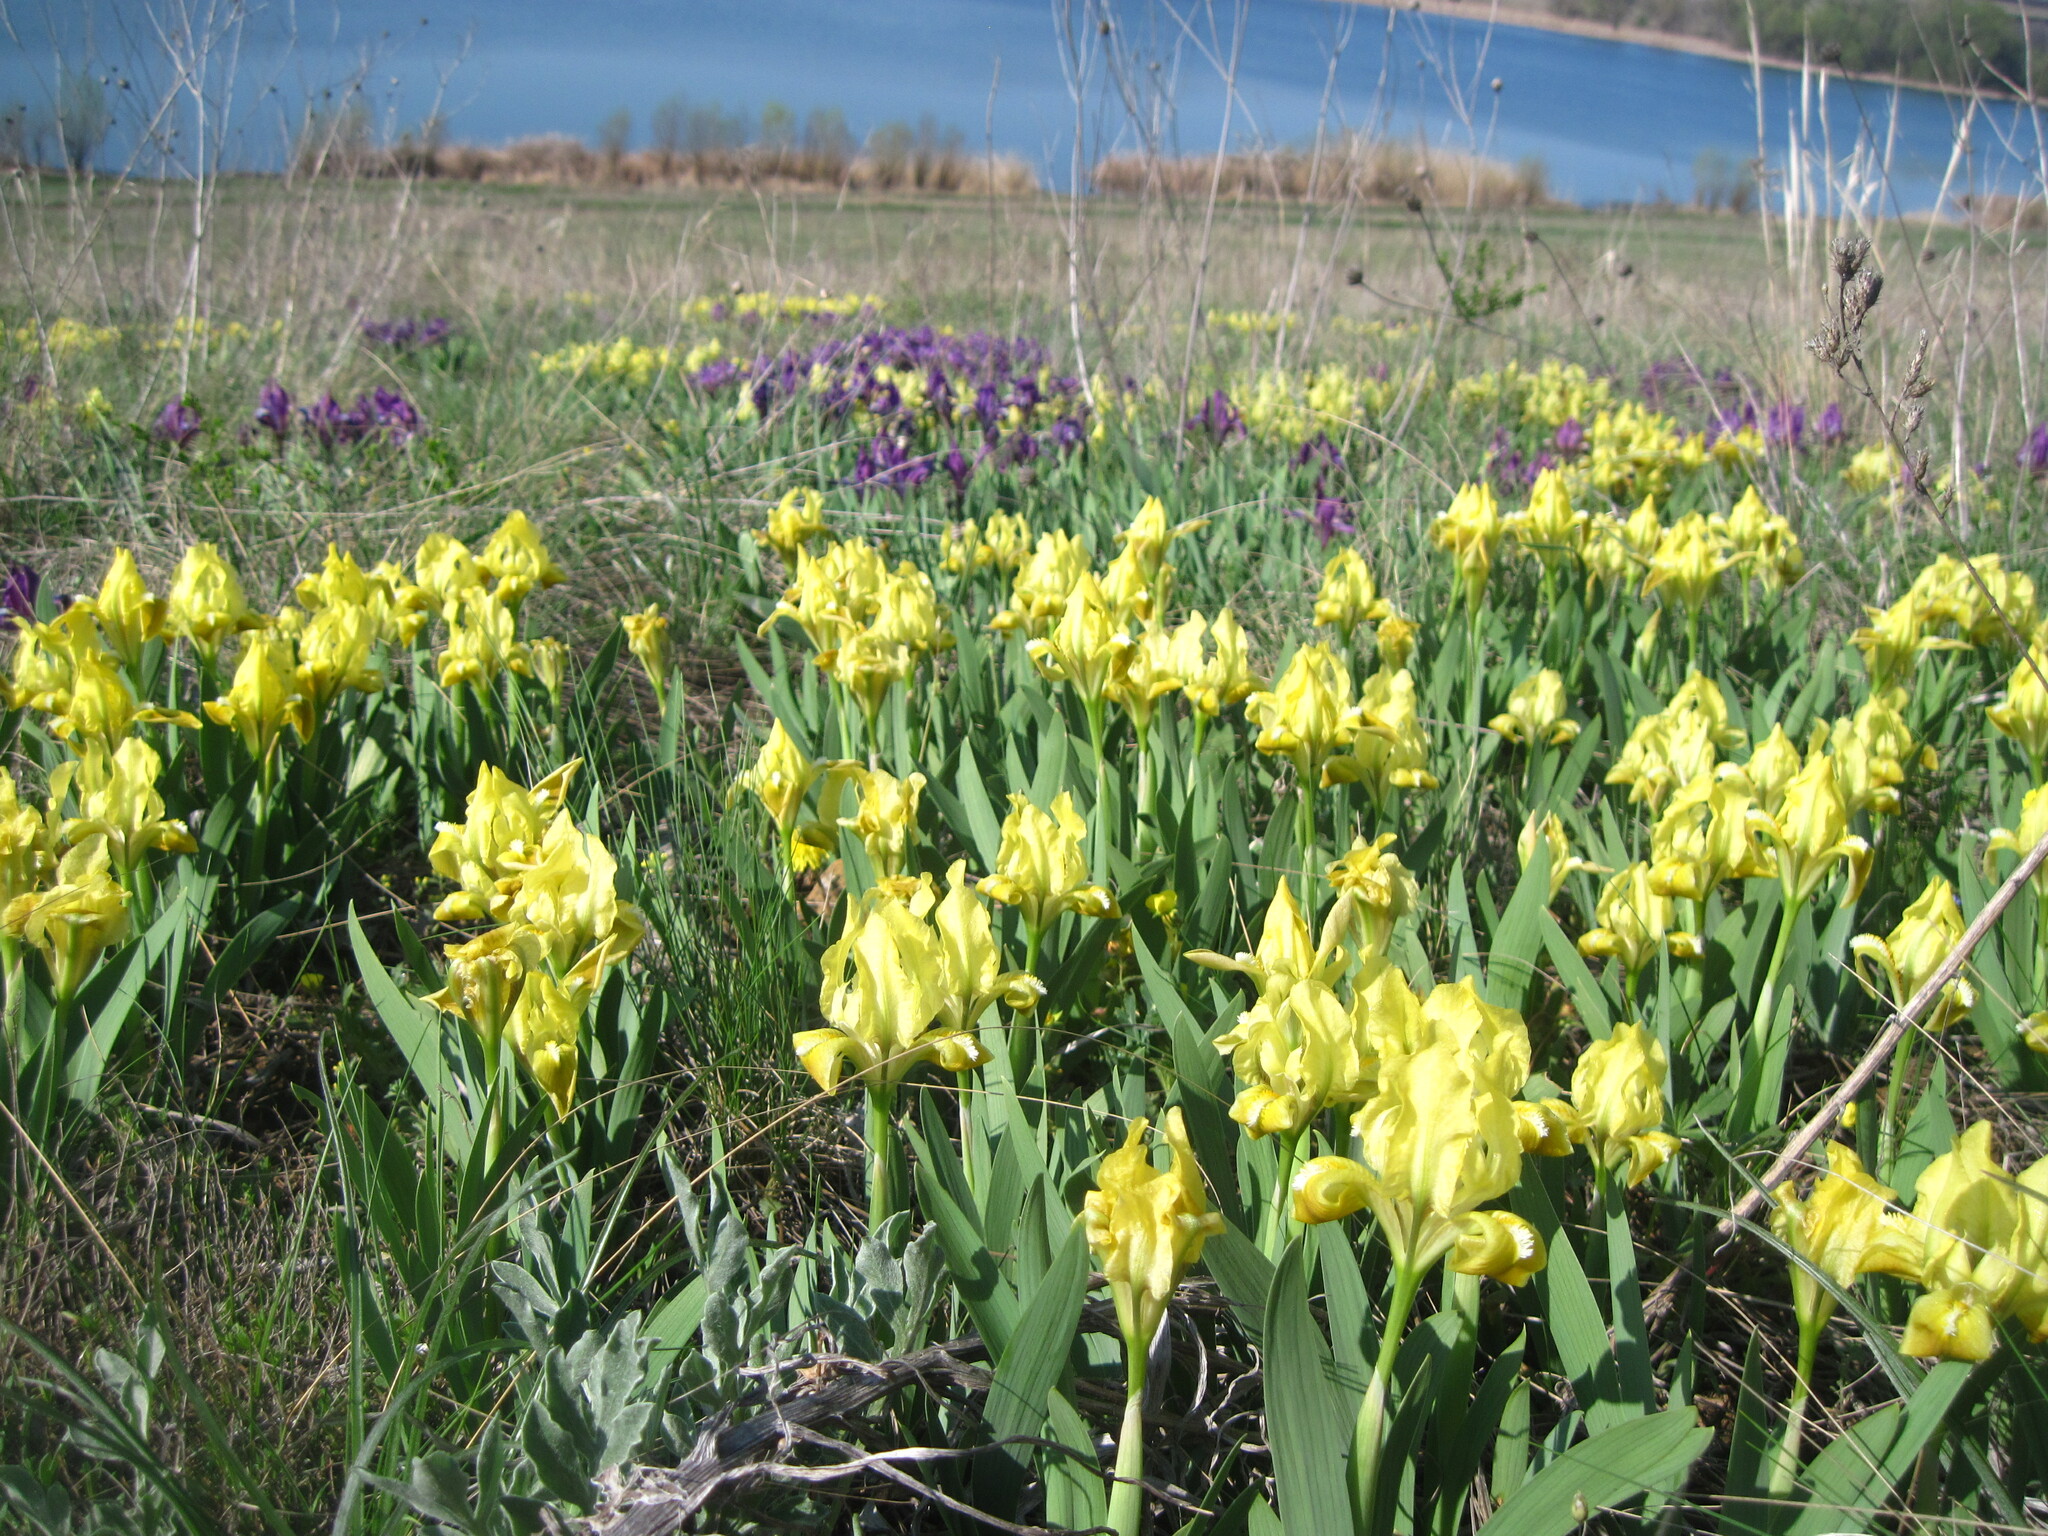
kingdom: Plantae
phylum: Tracheophyta
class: Liliopsida
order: Asparagales
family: Iridaceae
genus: Iris
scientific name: Iris pumila
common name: Dwarf iris
